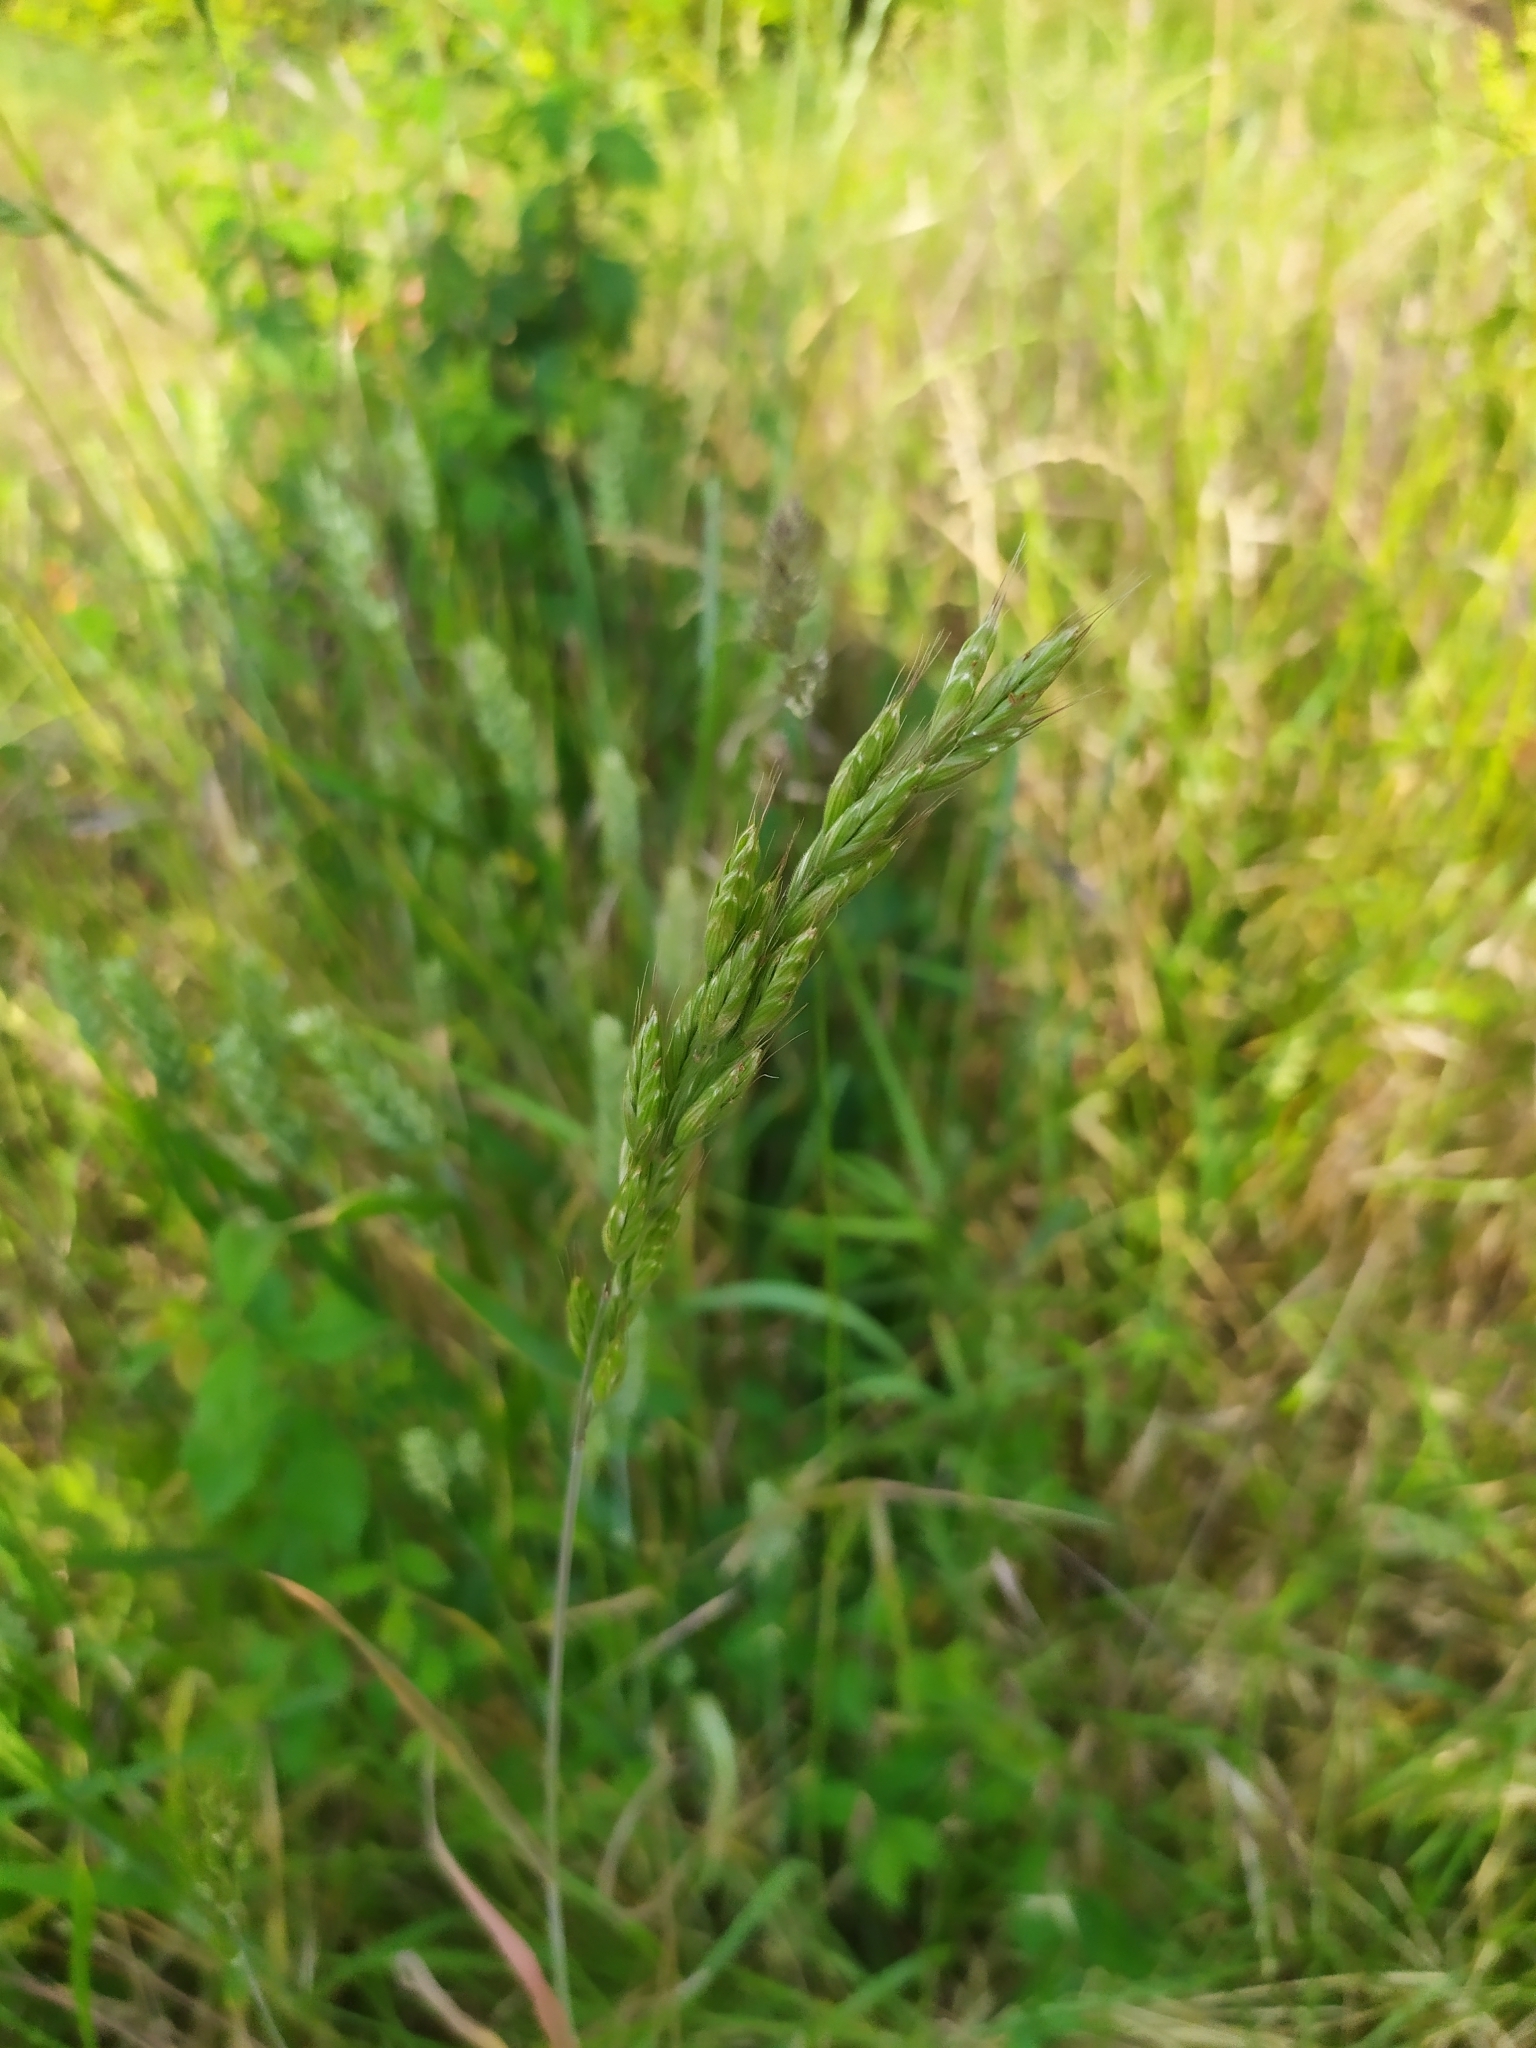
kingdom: Plantae
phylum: Tracheophyta
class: Liliopsida
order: Poales
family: Poaceae
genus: Bromus
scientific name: Bromus hordeaceus
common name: Soft brome
